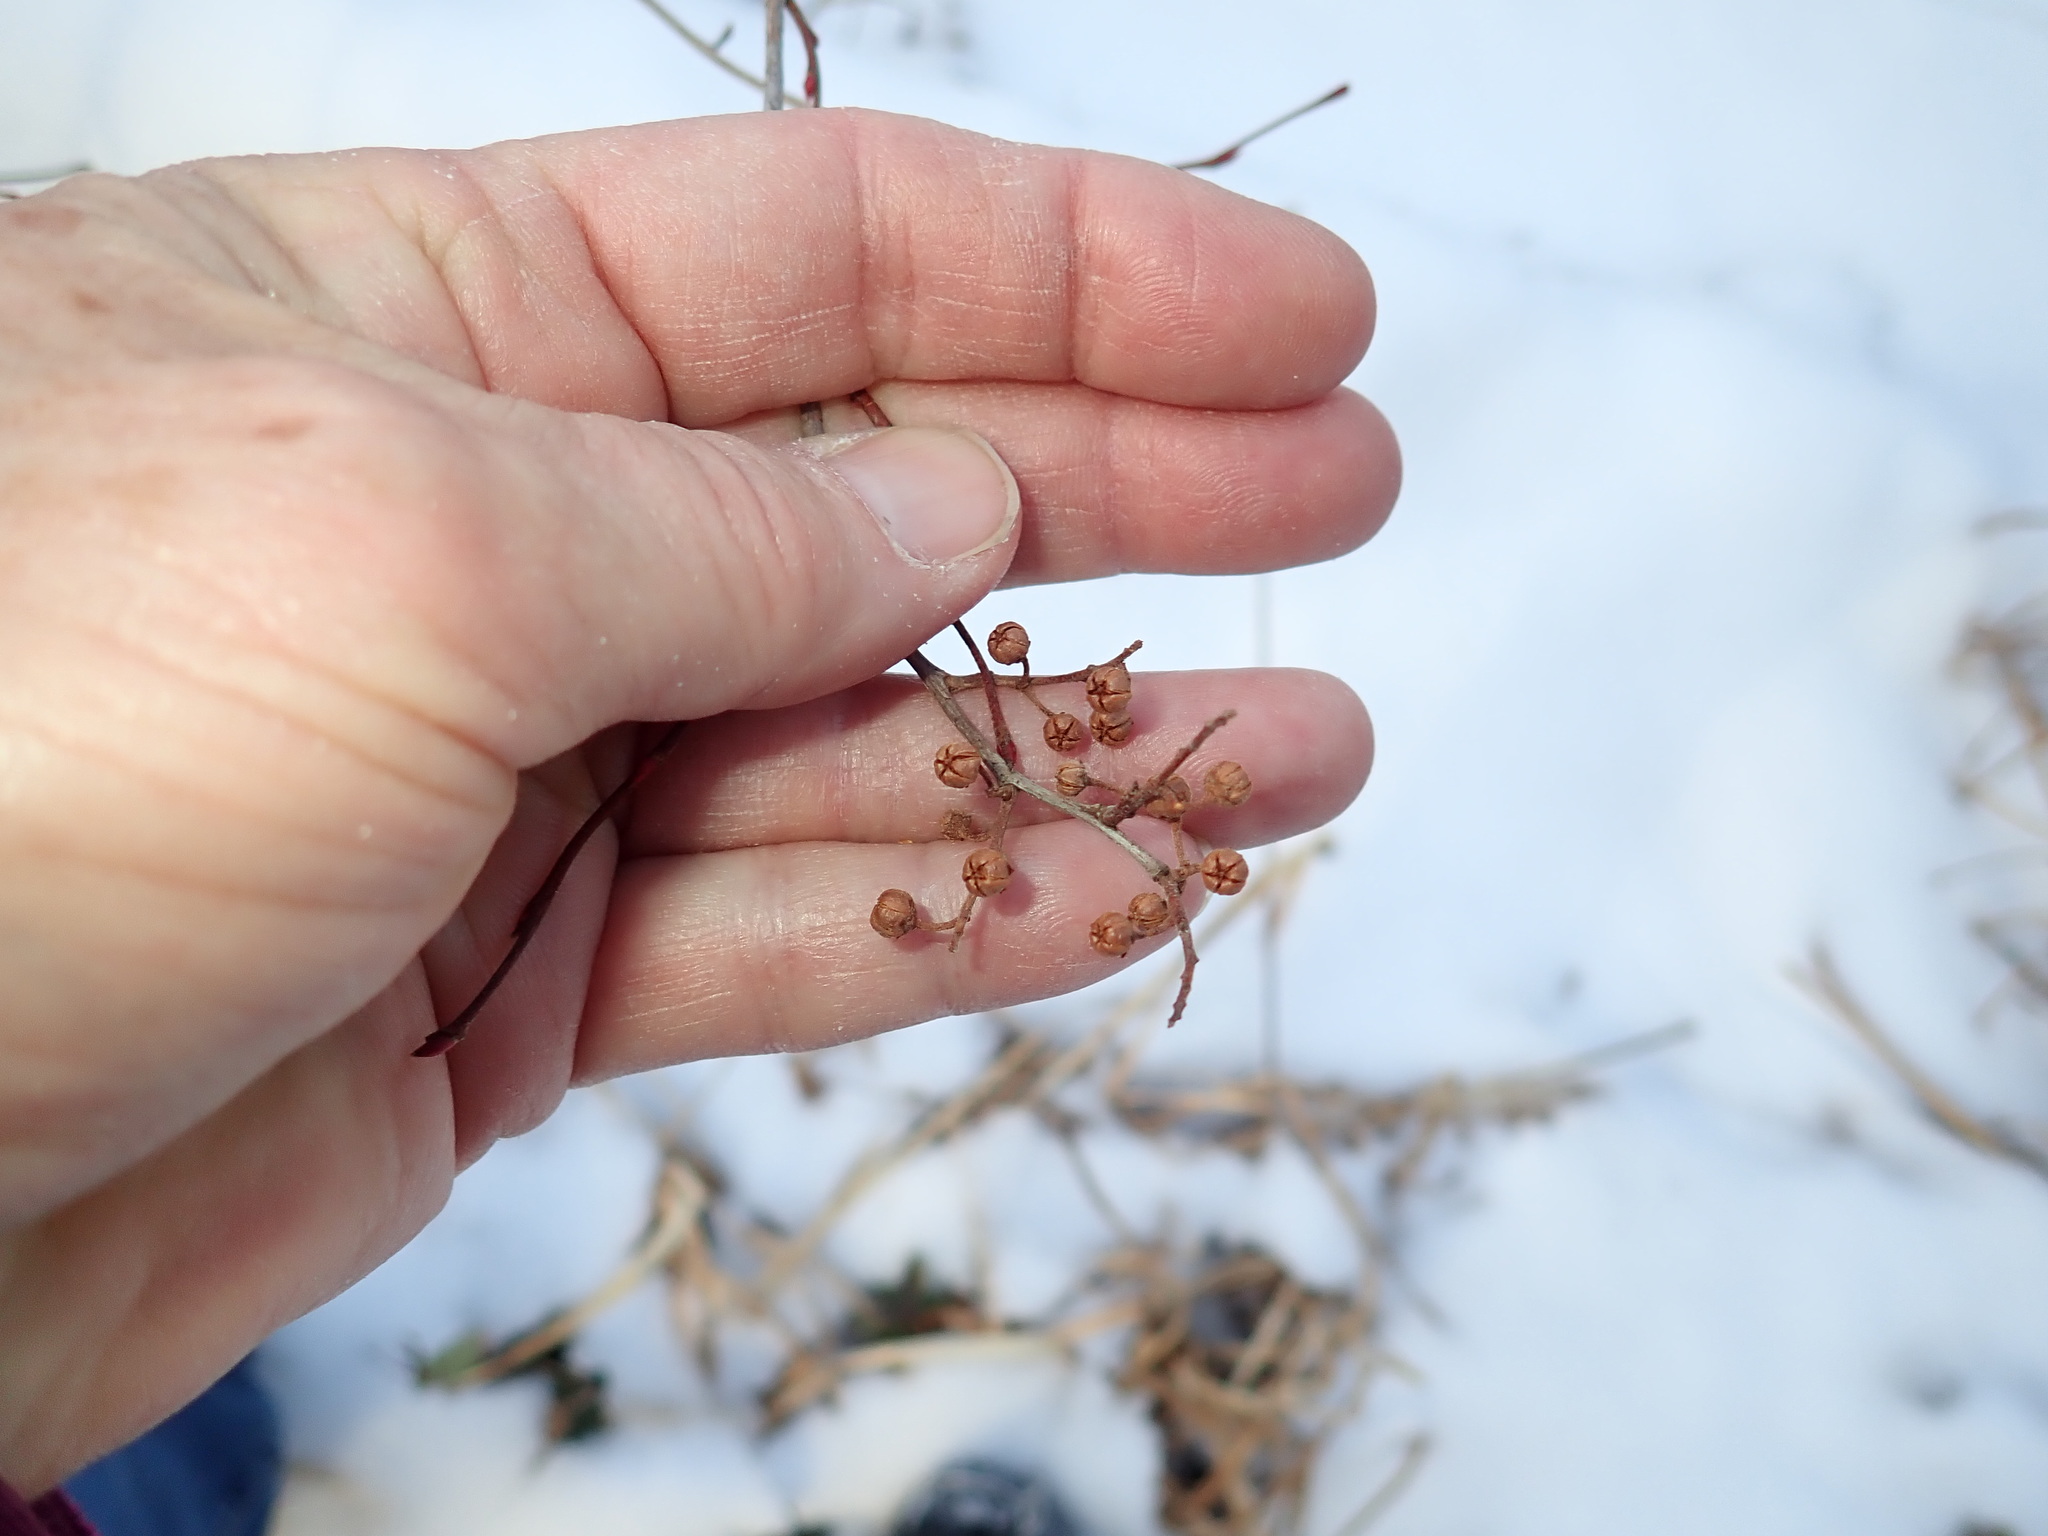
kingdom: Plantae
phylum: Tracheophyta
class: Magnoliopsida
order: Ericales
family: Ericaceae
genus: Lyonia
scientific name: Lyonia ligustrina
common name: Maleberry
